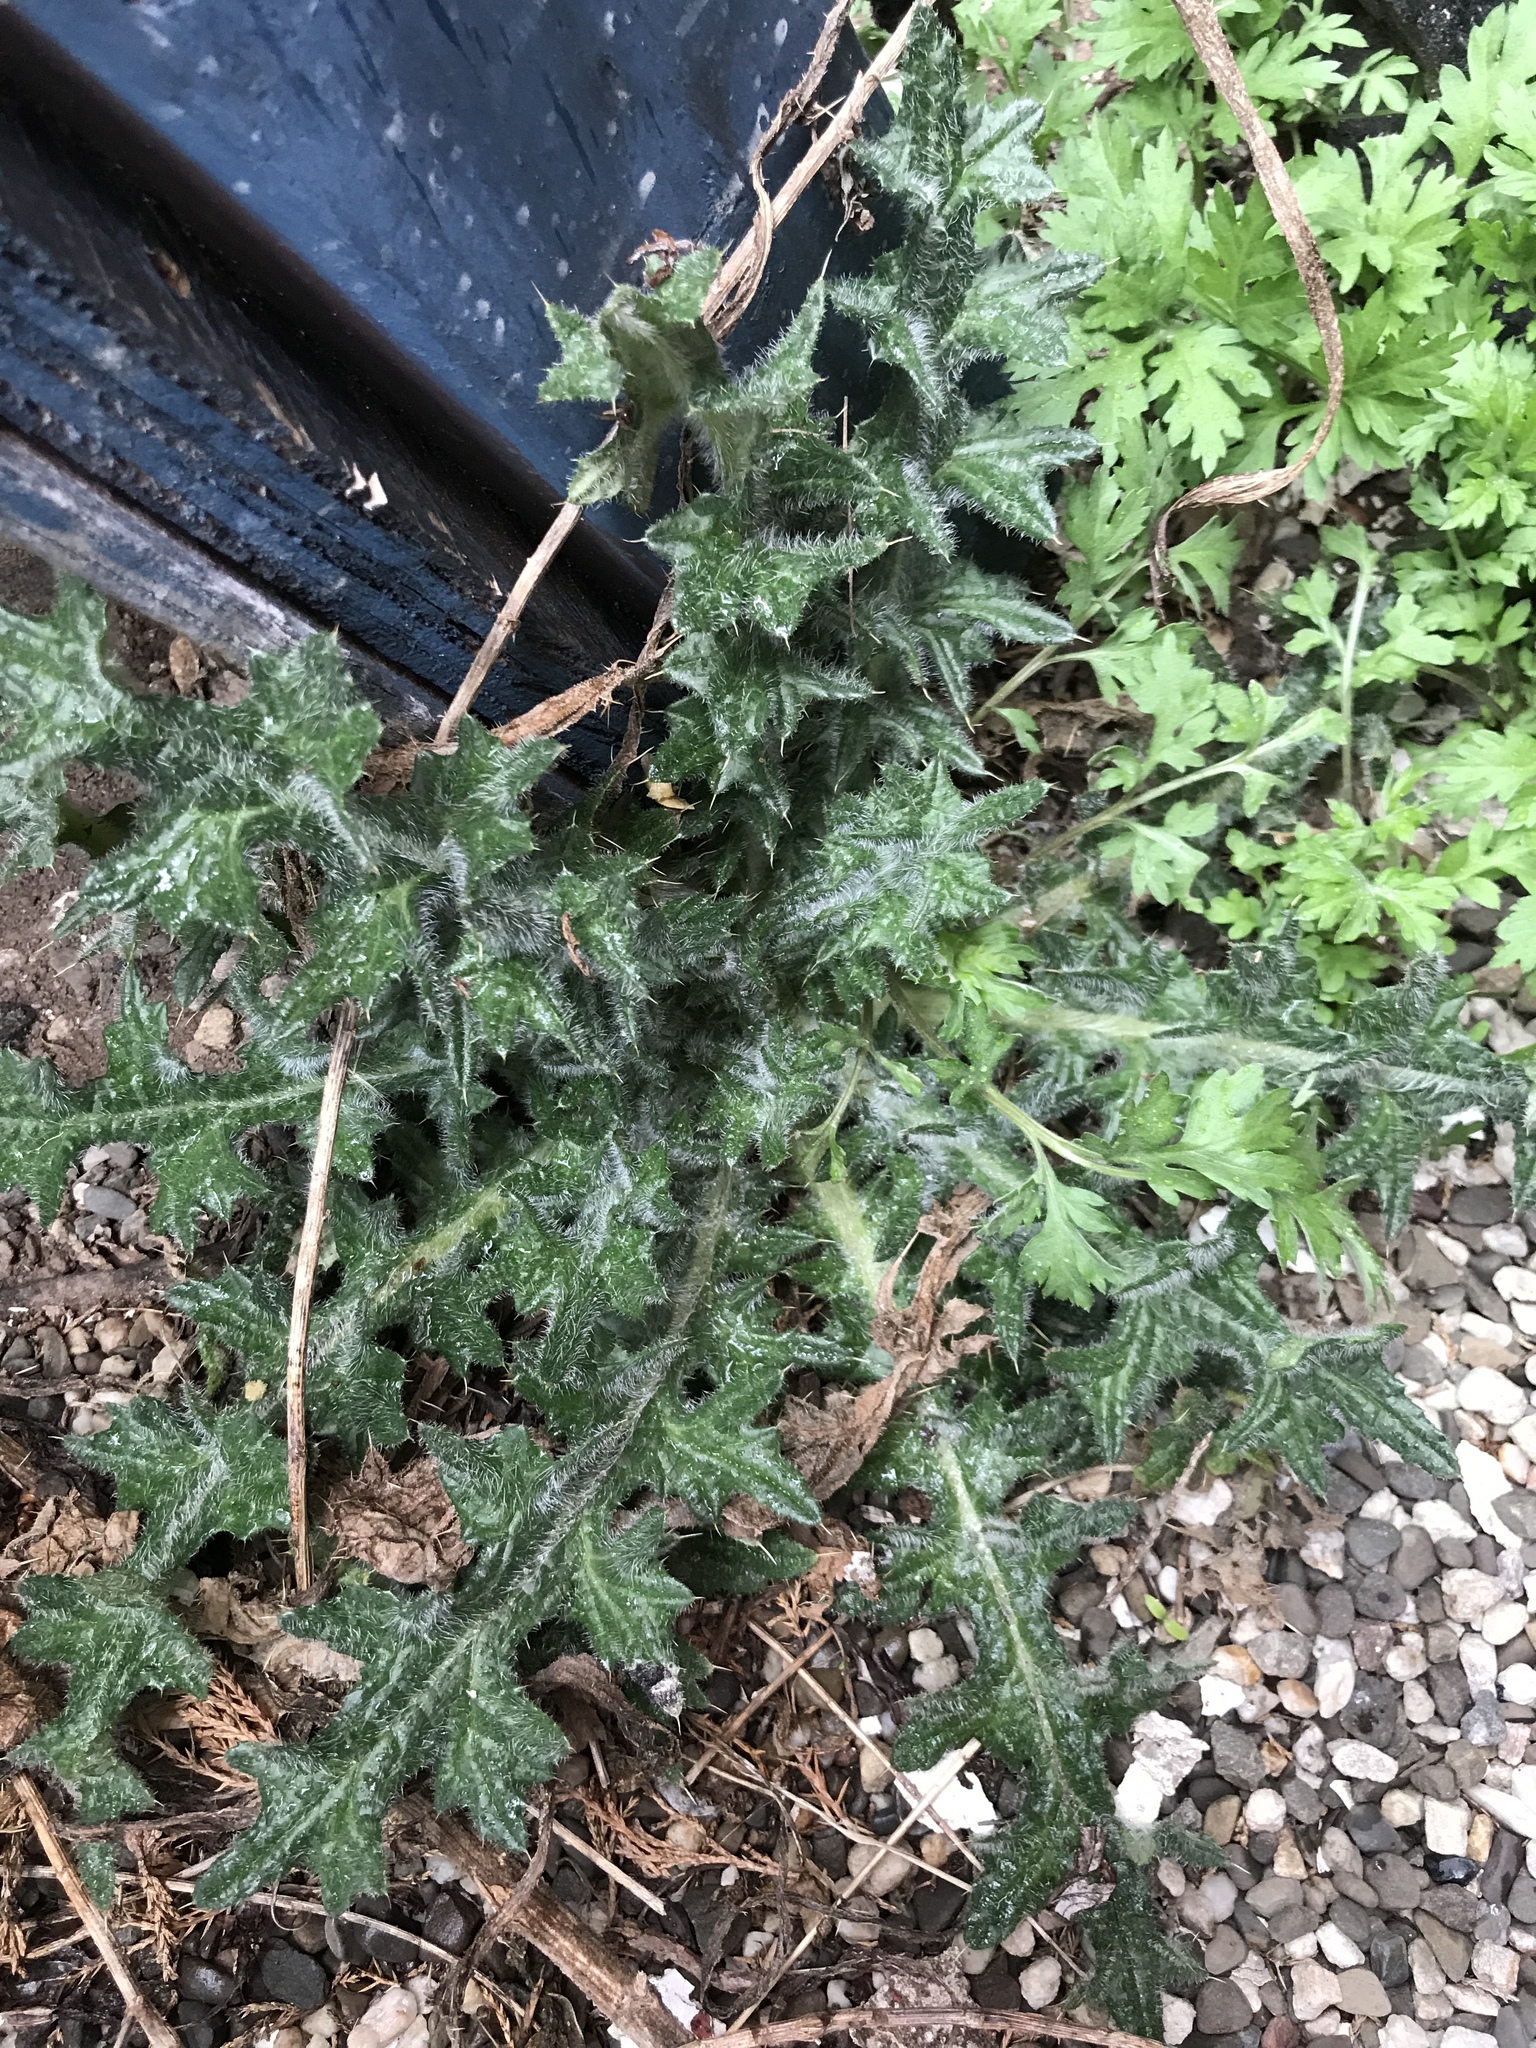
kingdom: Plantae
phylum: Tracheophyta
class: Magnoliopsida
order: Asterales
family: Asteraceae
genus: Cirsium
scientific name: Cirsium vulgare
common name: Bull thistle
